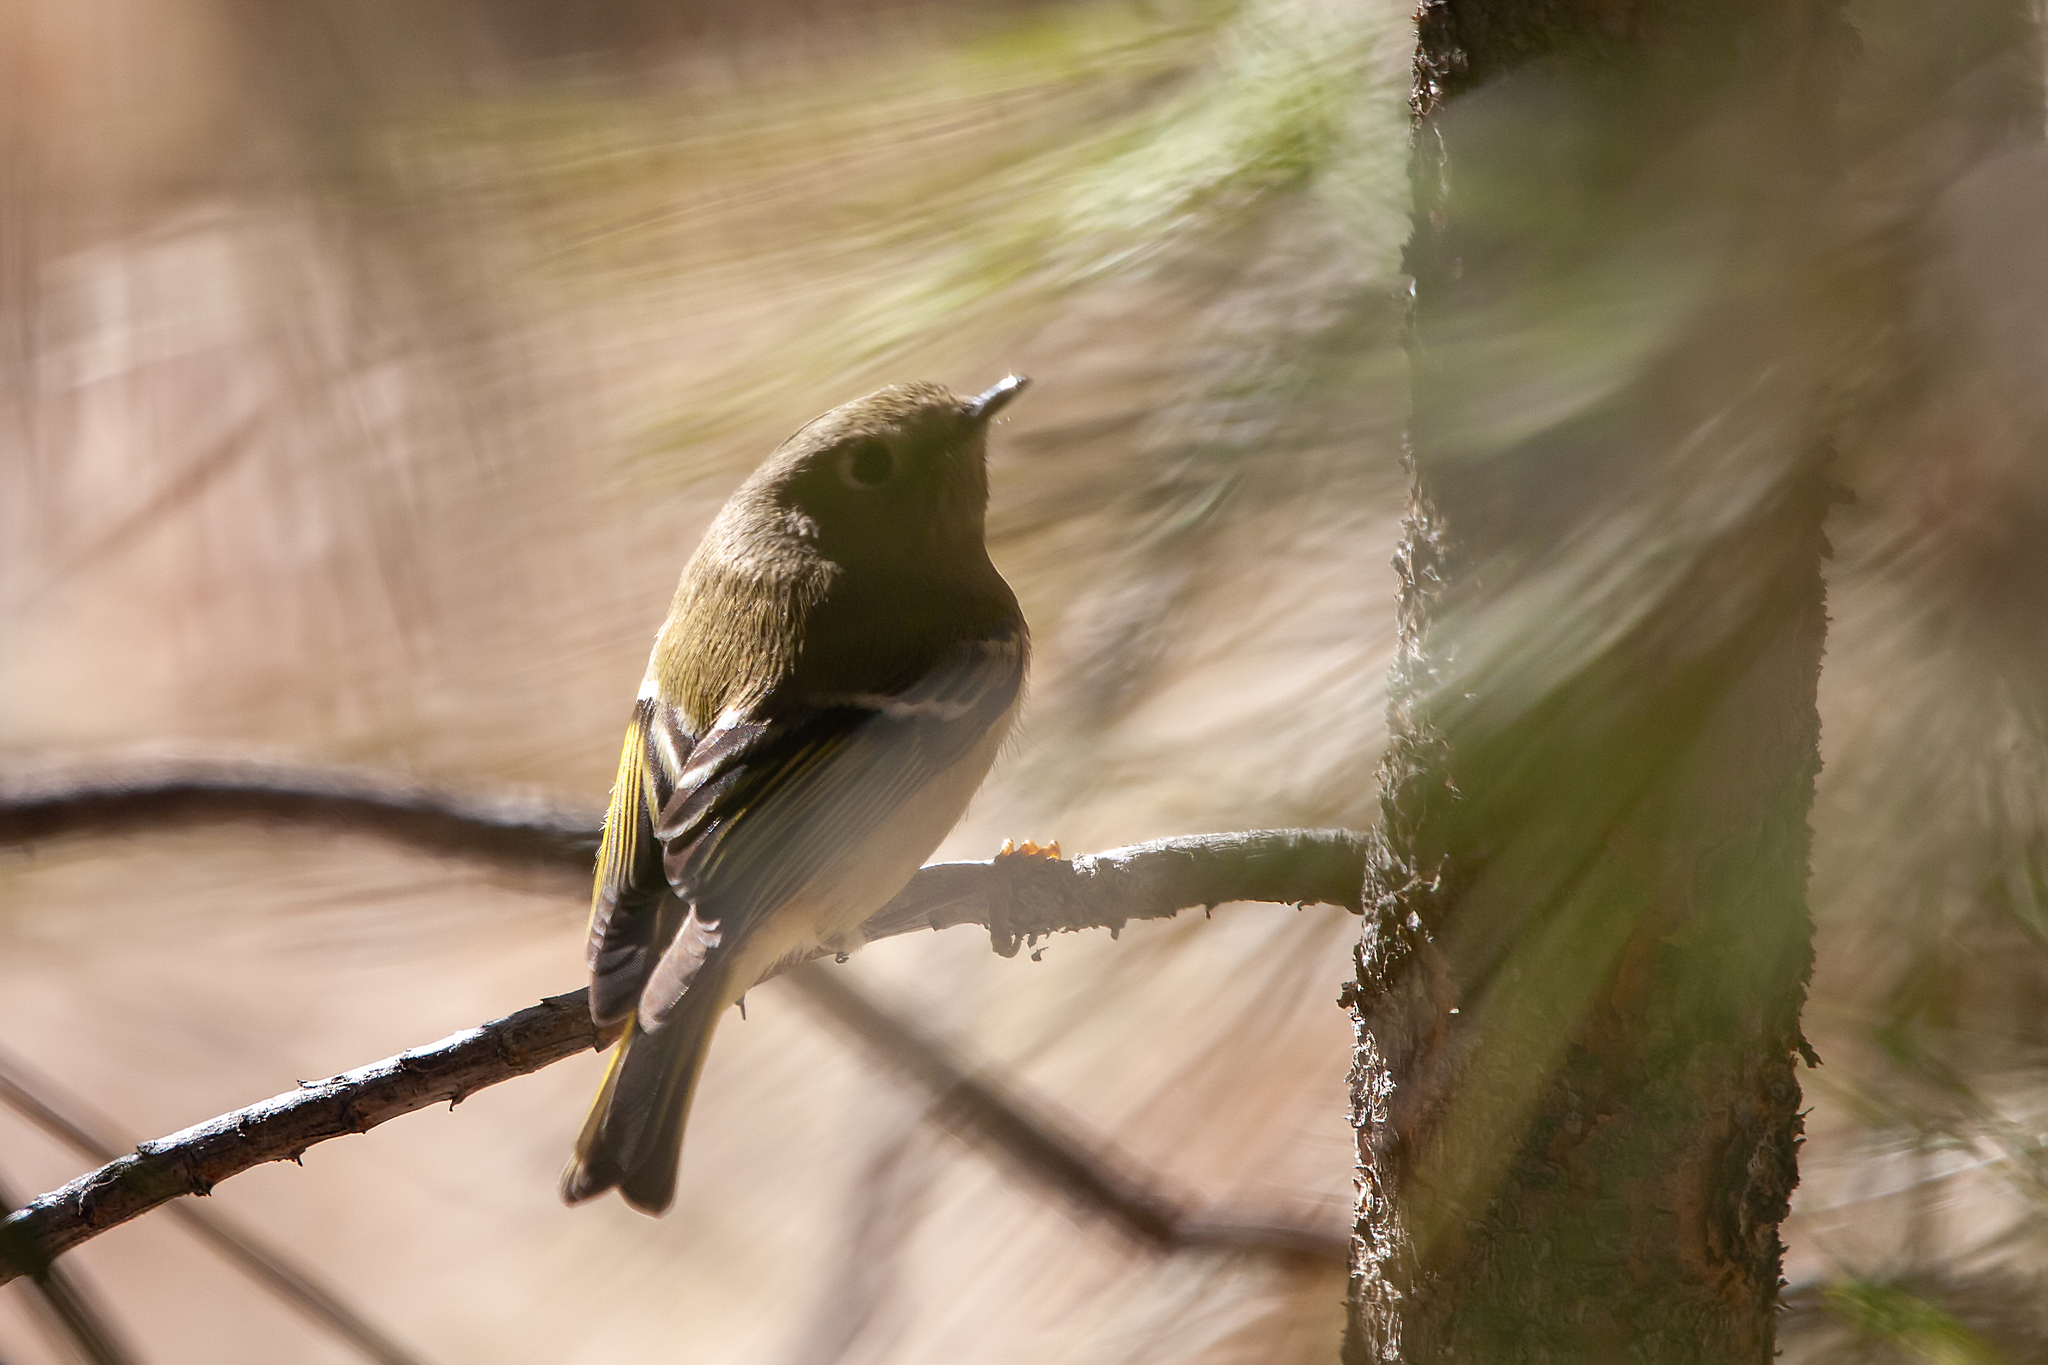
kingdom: Animalia
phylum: Chordata
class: Aves
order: Passeriformes
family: Regulidae
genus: Regulus
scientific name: Regulus calendula
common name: Ruby-crowned kinglet
